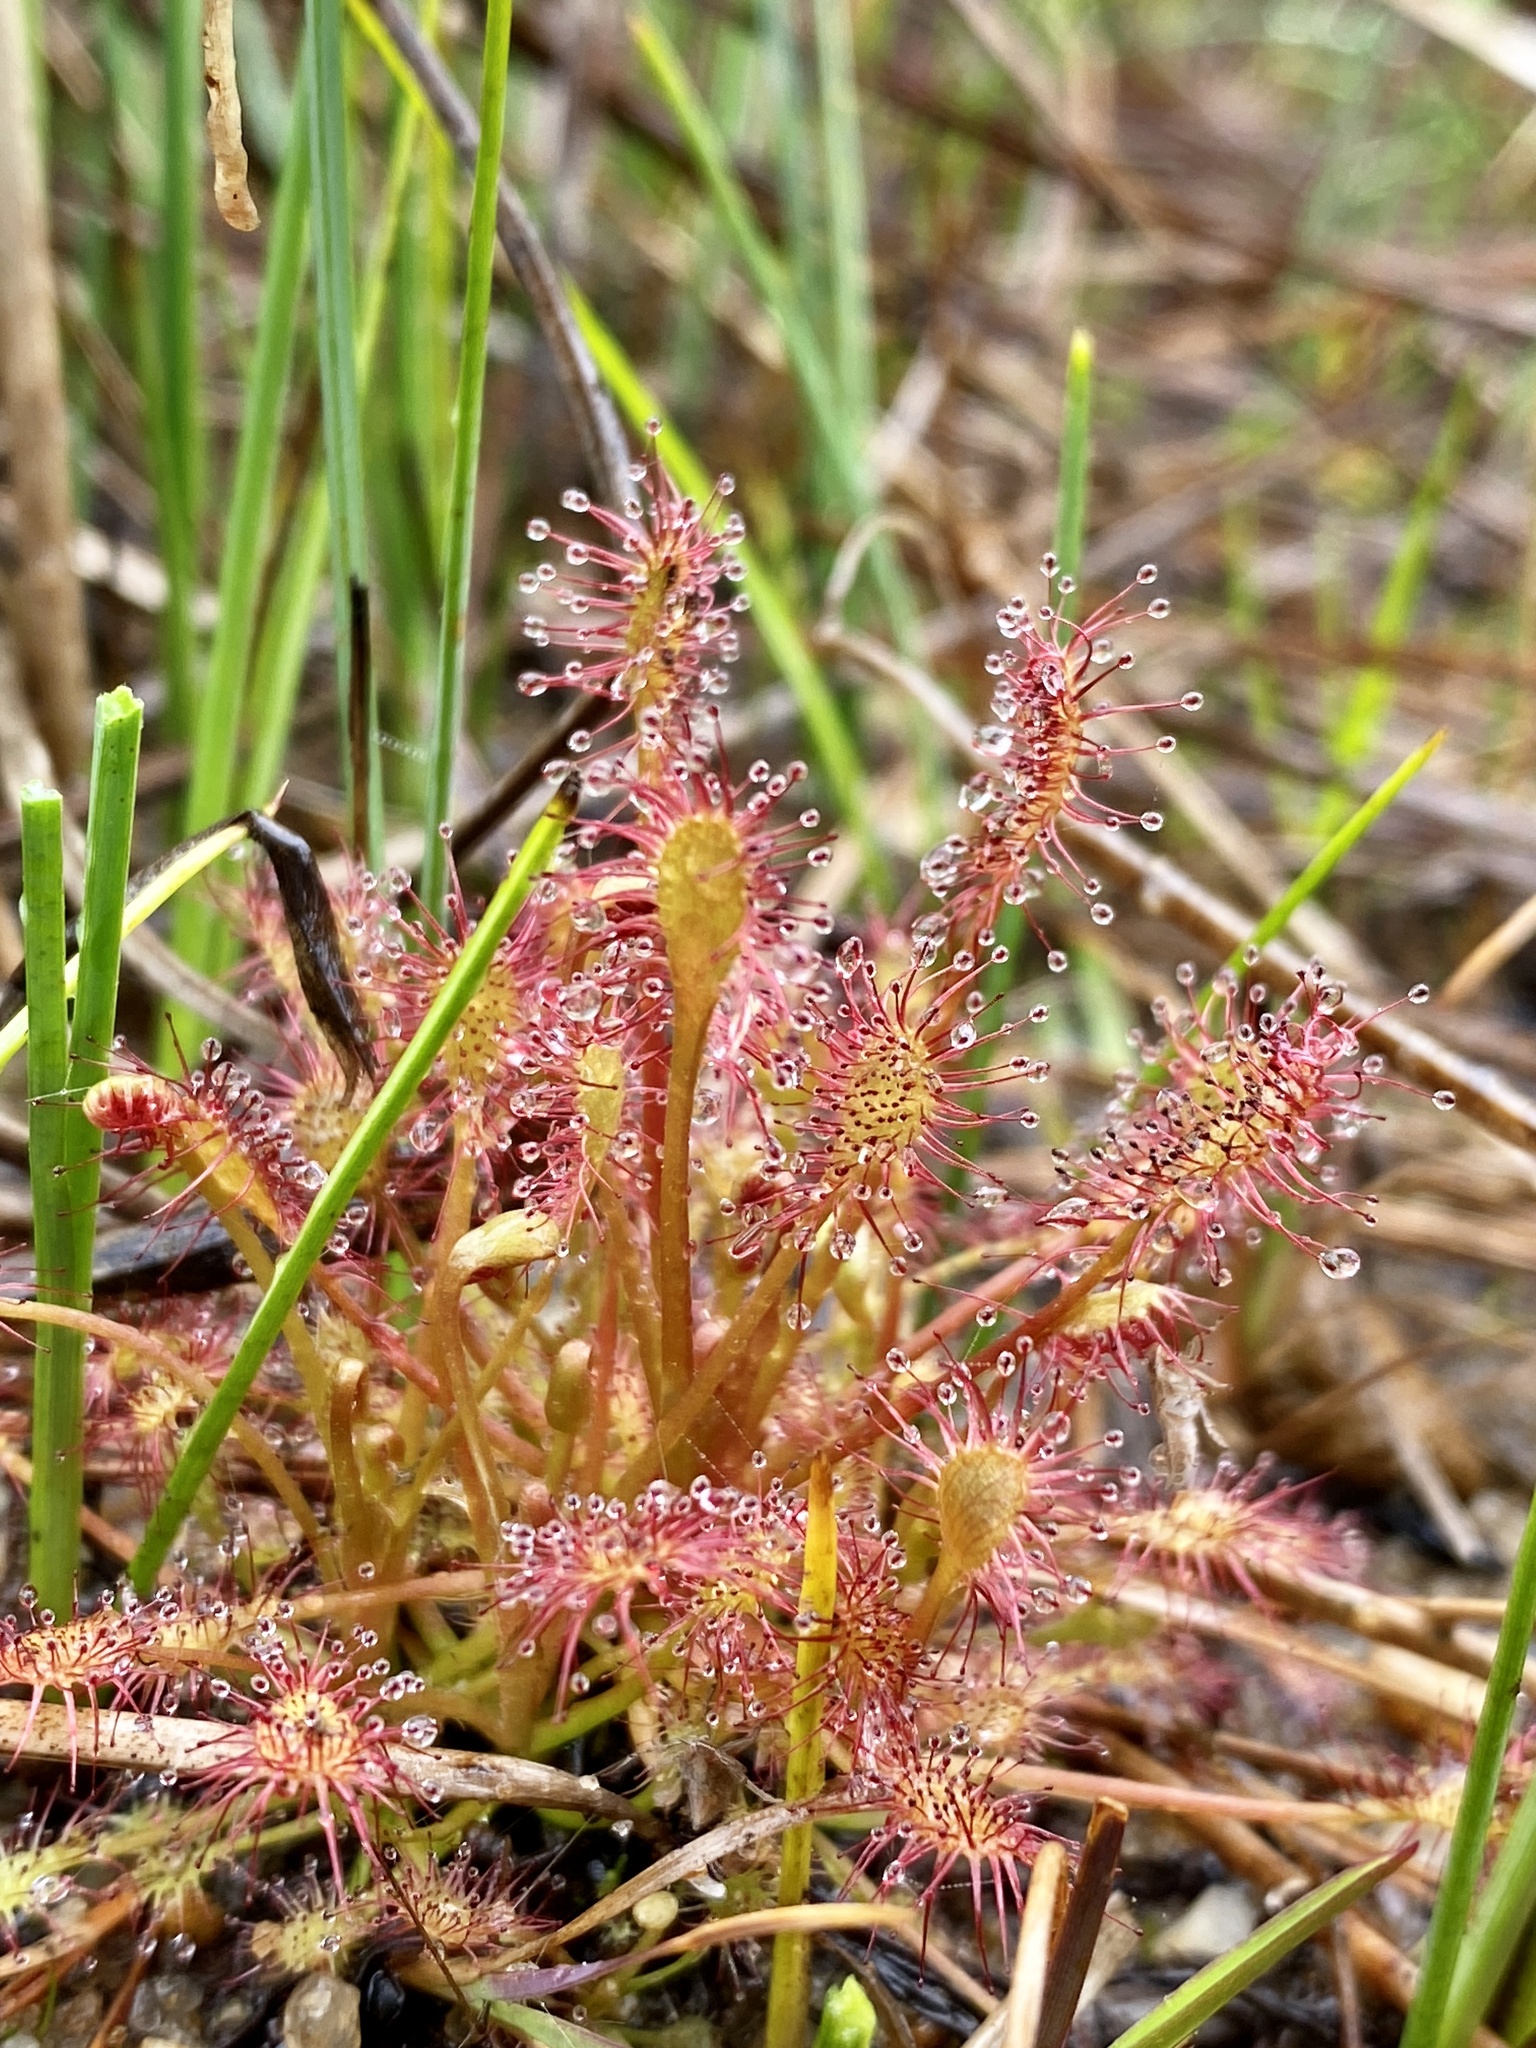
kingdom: Plantae
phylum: Tracheophyta
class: Magnoliopsida
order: Caryophyllales
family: Droseraceae
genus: Drosera
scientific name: Drosera intermedia
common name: Oblong-leaved sundew
